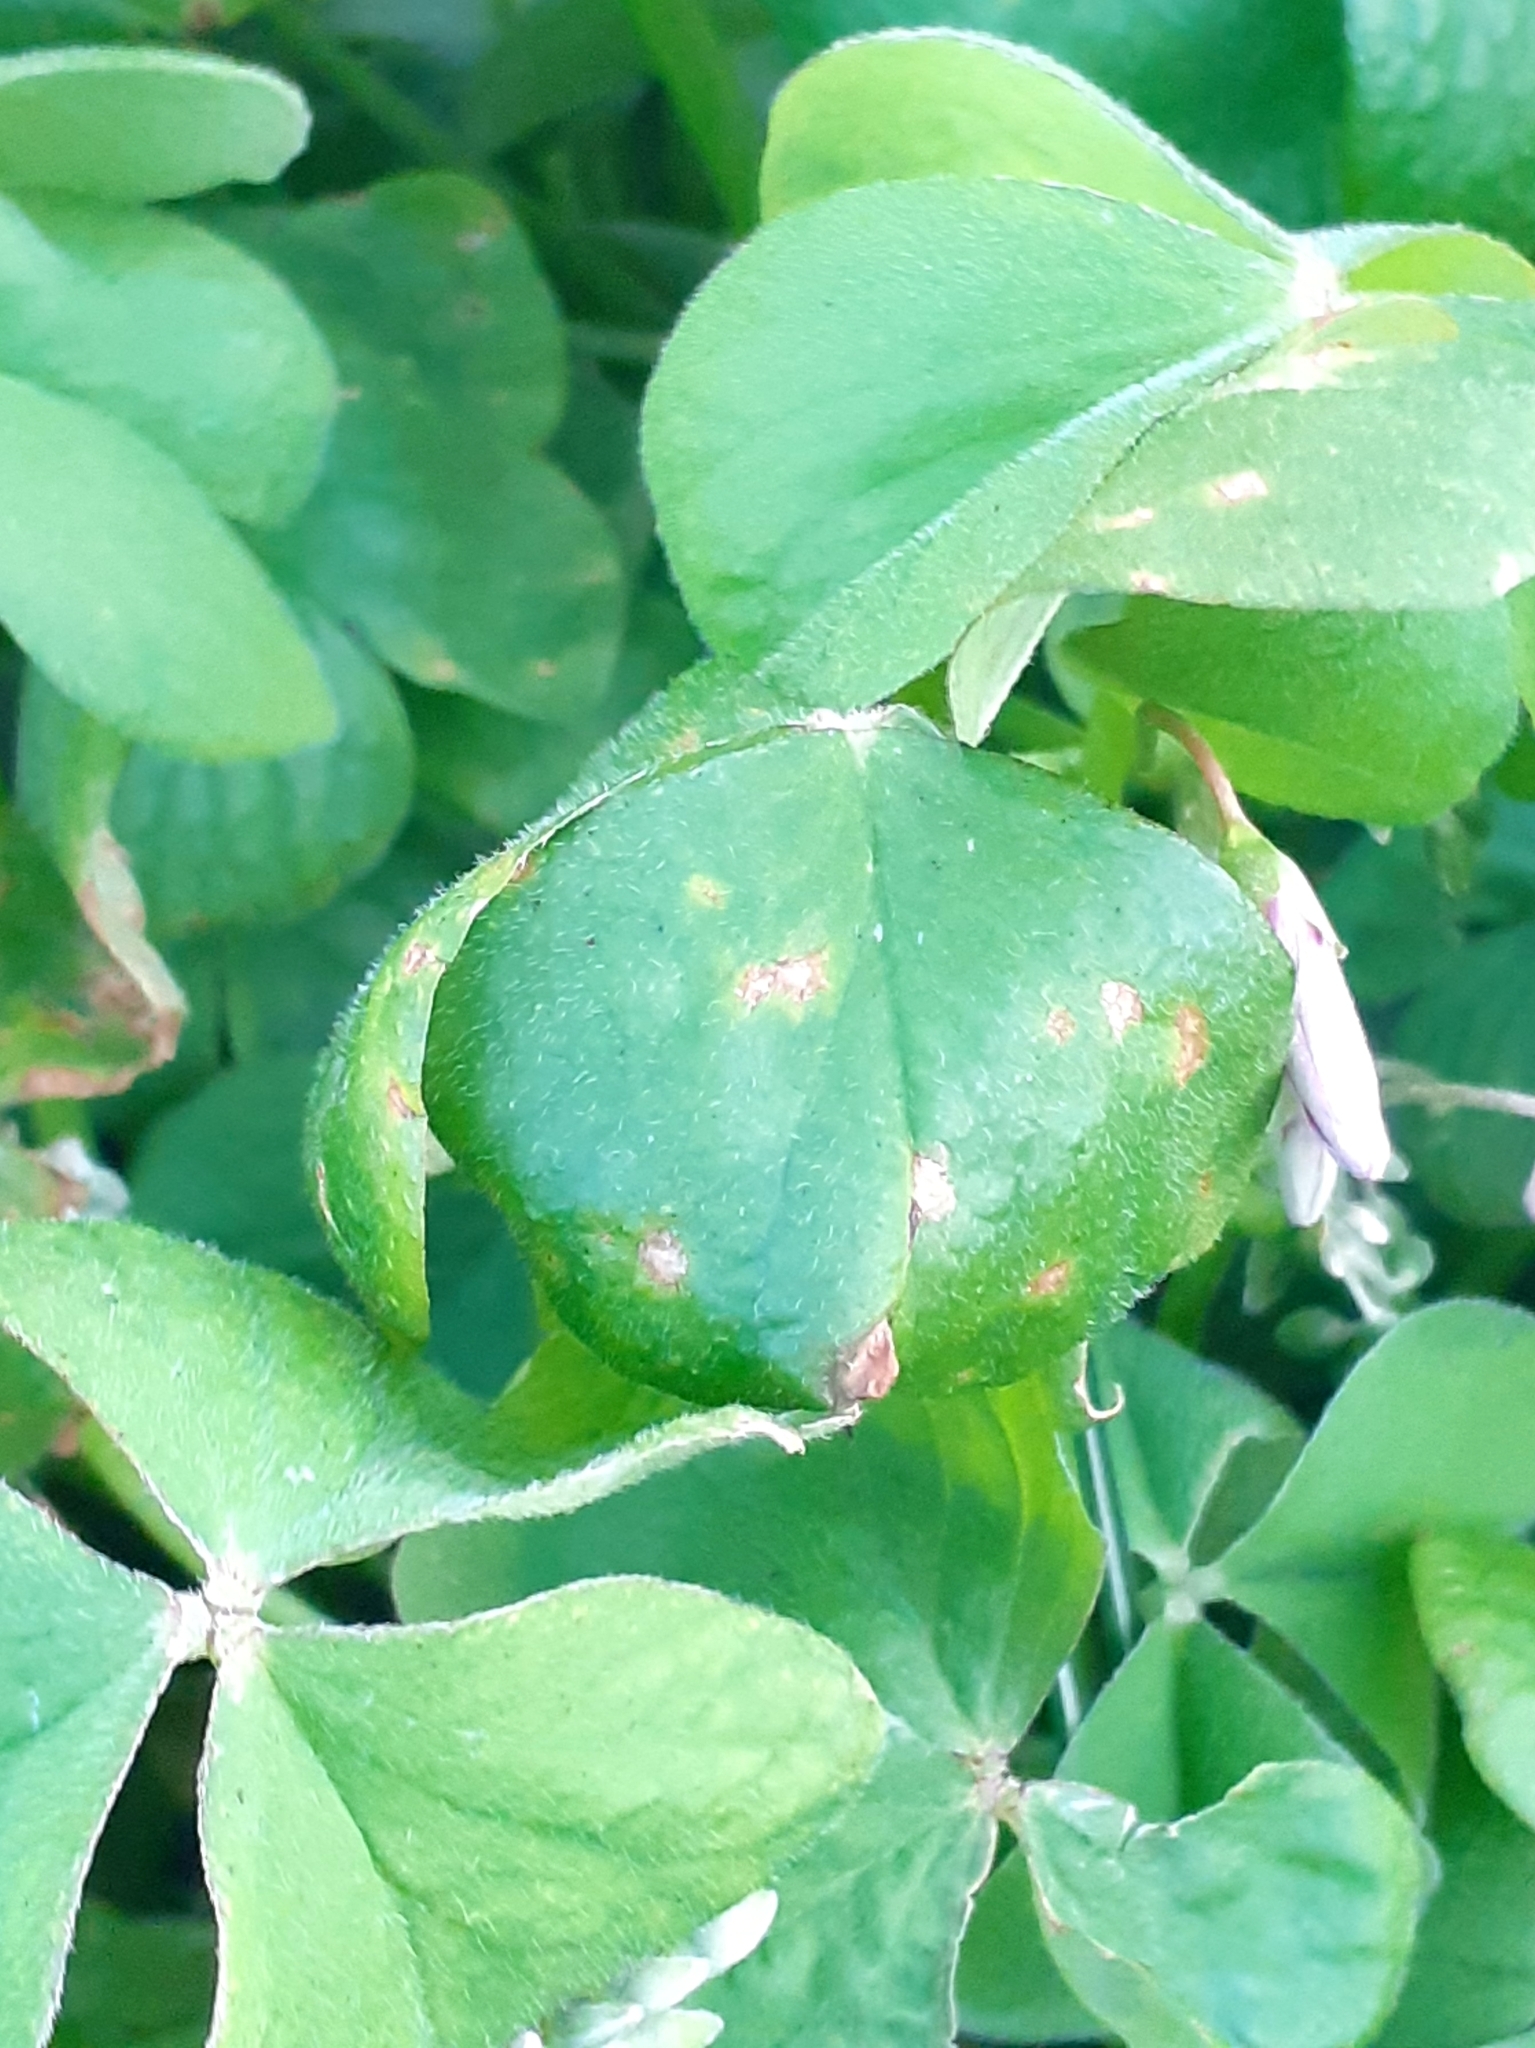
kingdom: Fungi
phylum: Basidiomycota
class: Pucciniomycetes
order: Pucciniales
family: Pucciniaceae
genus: Puccinia
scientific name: Puccinia oxalidis
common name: Oxalis rust
